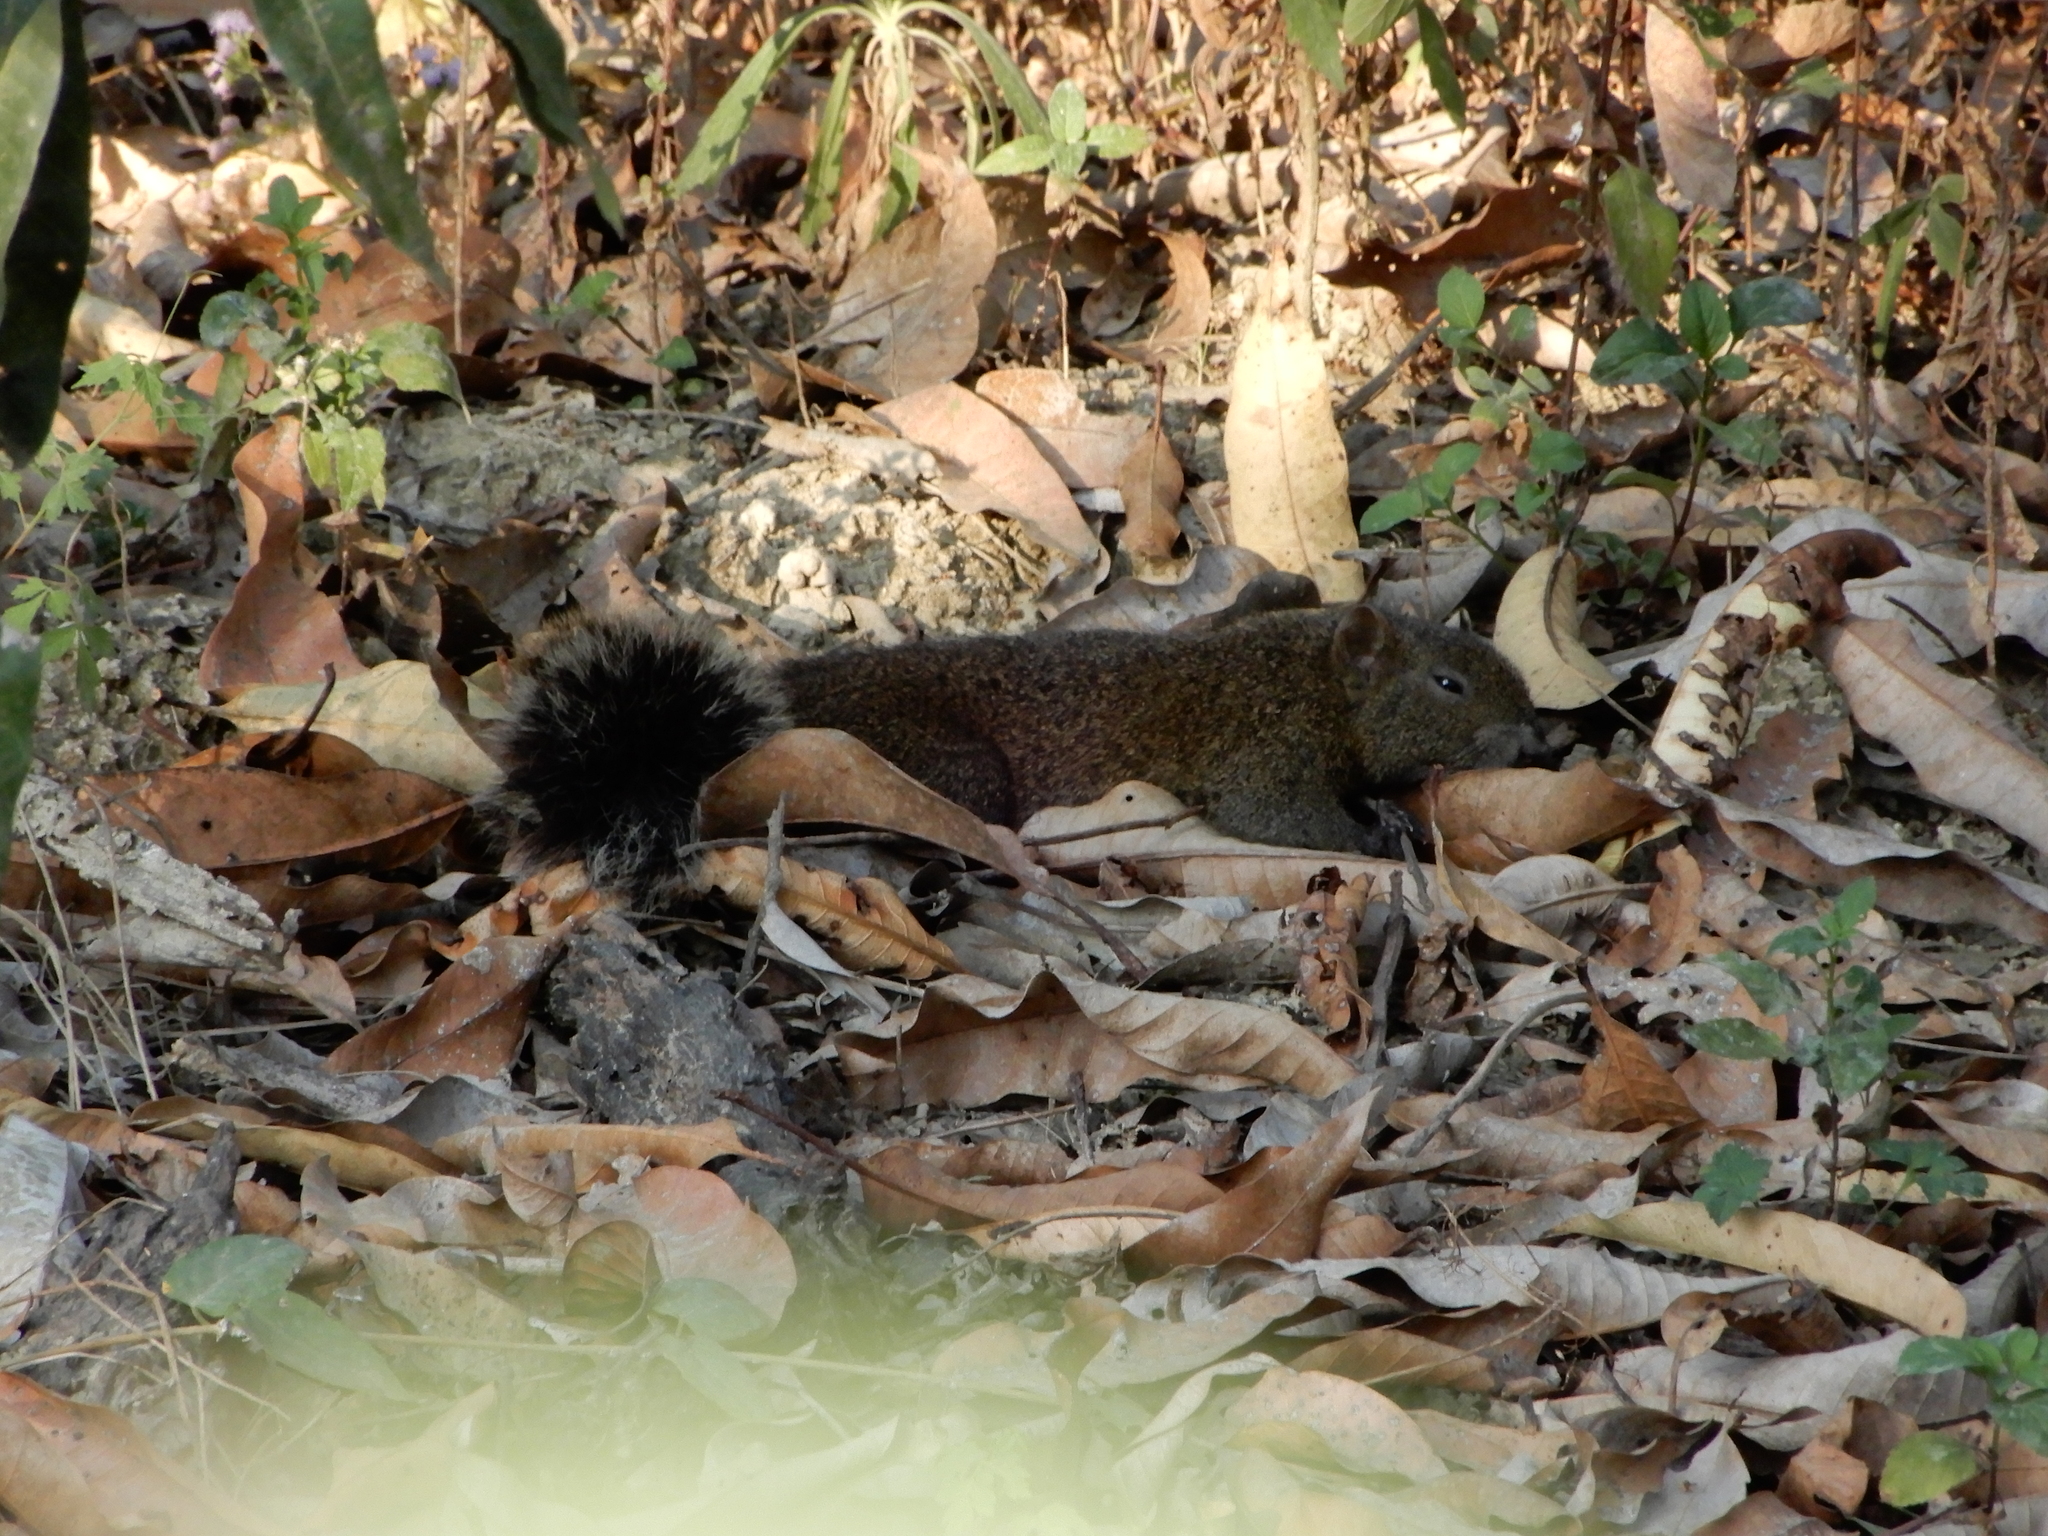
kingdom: Animalia
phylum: Chordata
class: Mammalia
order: Rodentia
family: Sciuridae
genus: Callosciurus
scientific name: Callosciurus erythraeus
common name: Pallas's squirrel
